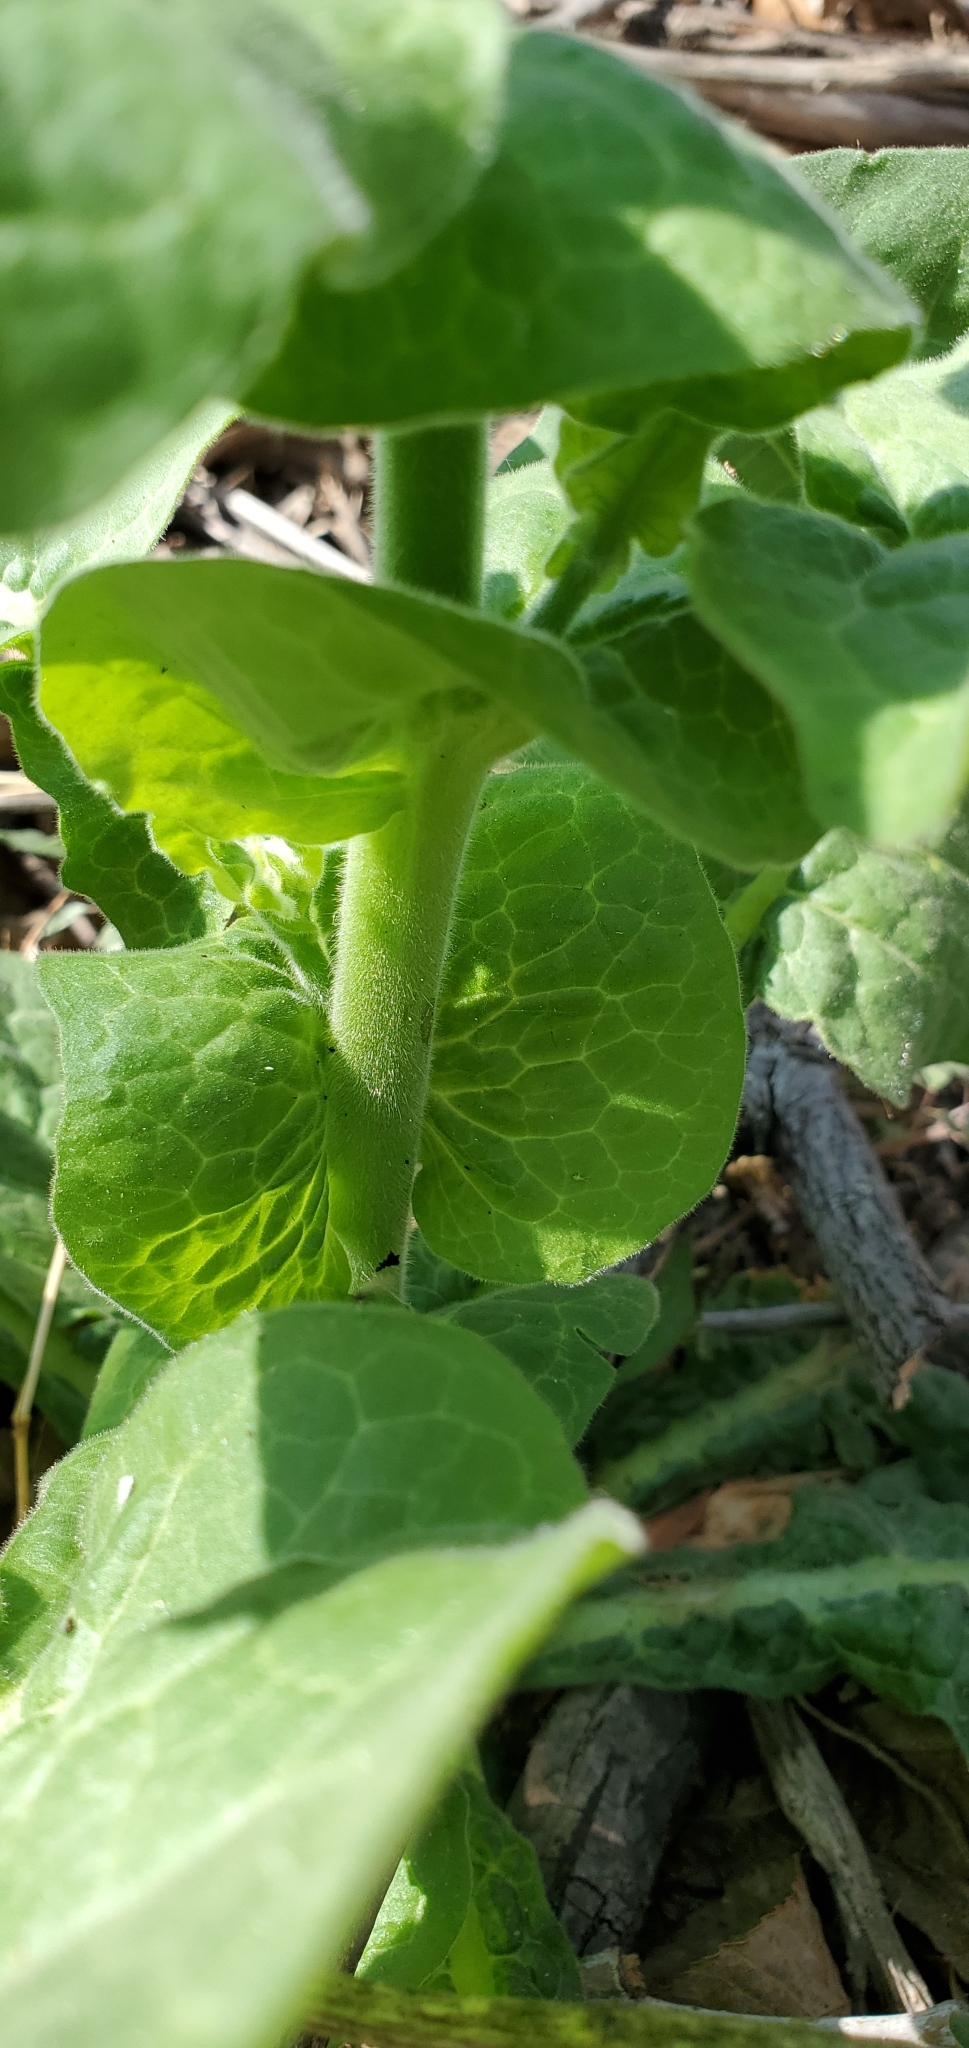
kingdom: Plantae
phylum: Tracheophyta
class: Magnoliopsida
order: Solanales
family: Solanaceae
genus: Nicotiana
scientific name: Nicotiana repanda
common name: Fiddle-leaf tobacco
